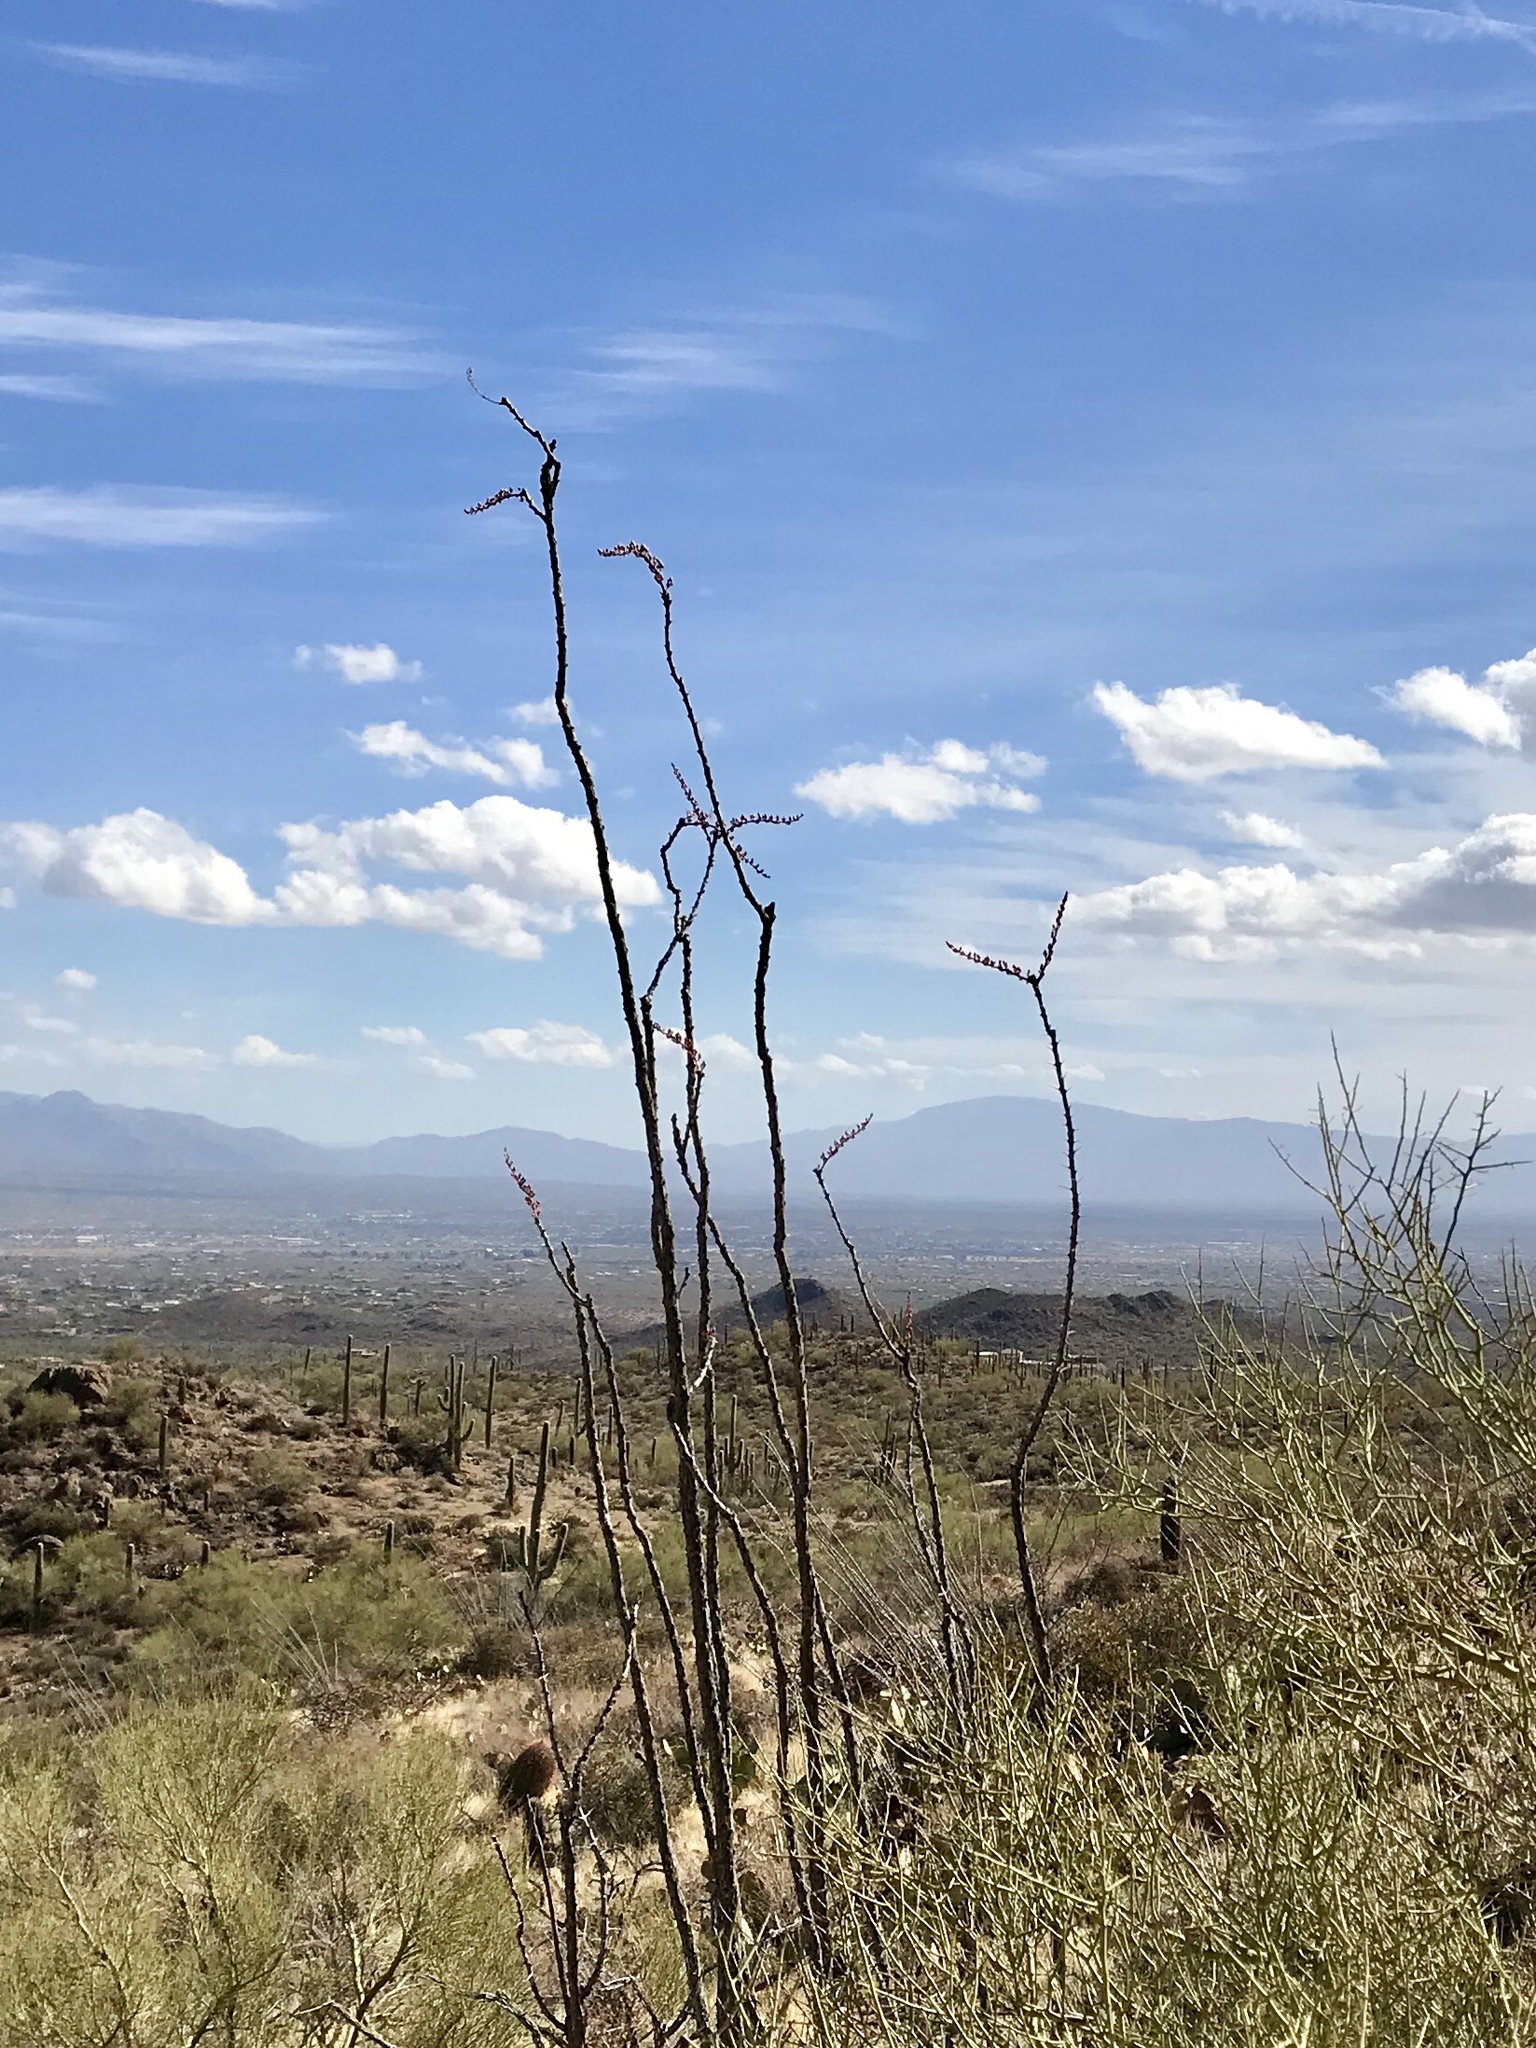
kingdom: Plantae
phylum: Tracheophyta
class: Magnoliopsida
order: Ericales
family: Fouquieriaceae
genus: Fouquieria
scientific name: Fouquieria splendens
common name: Vine-cactus
